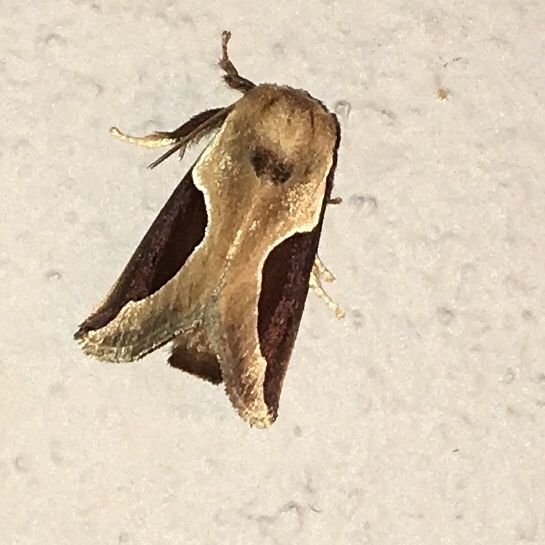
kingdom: Animalia
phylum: Arthropoda
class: Insecta
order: Lepidoptera
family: Limacodidae
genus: Prolimacodes
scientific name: Prolimacodes badia
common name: Skiff moth
